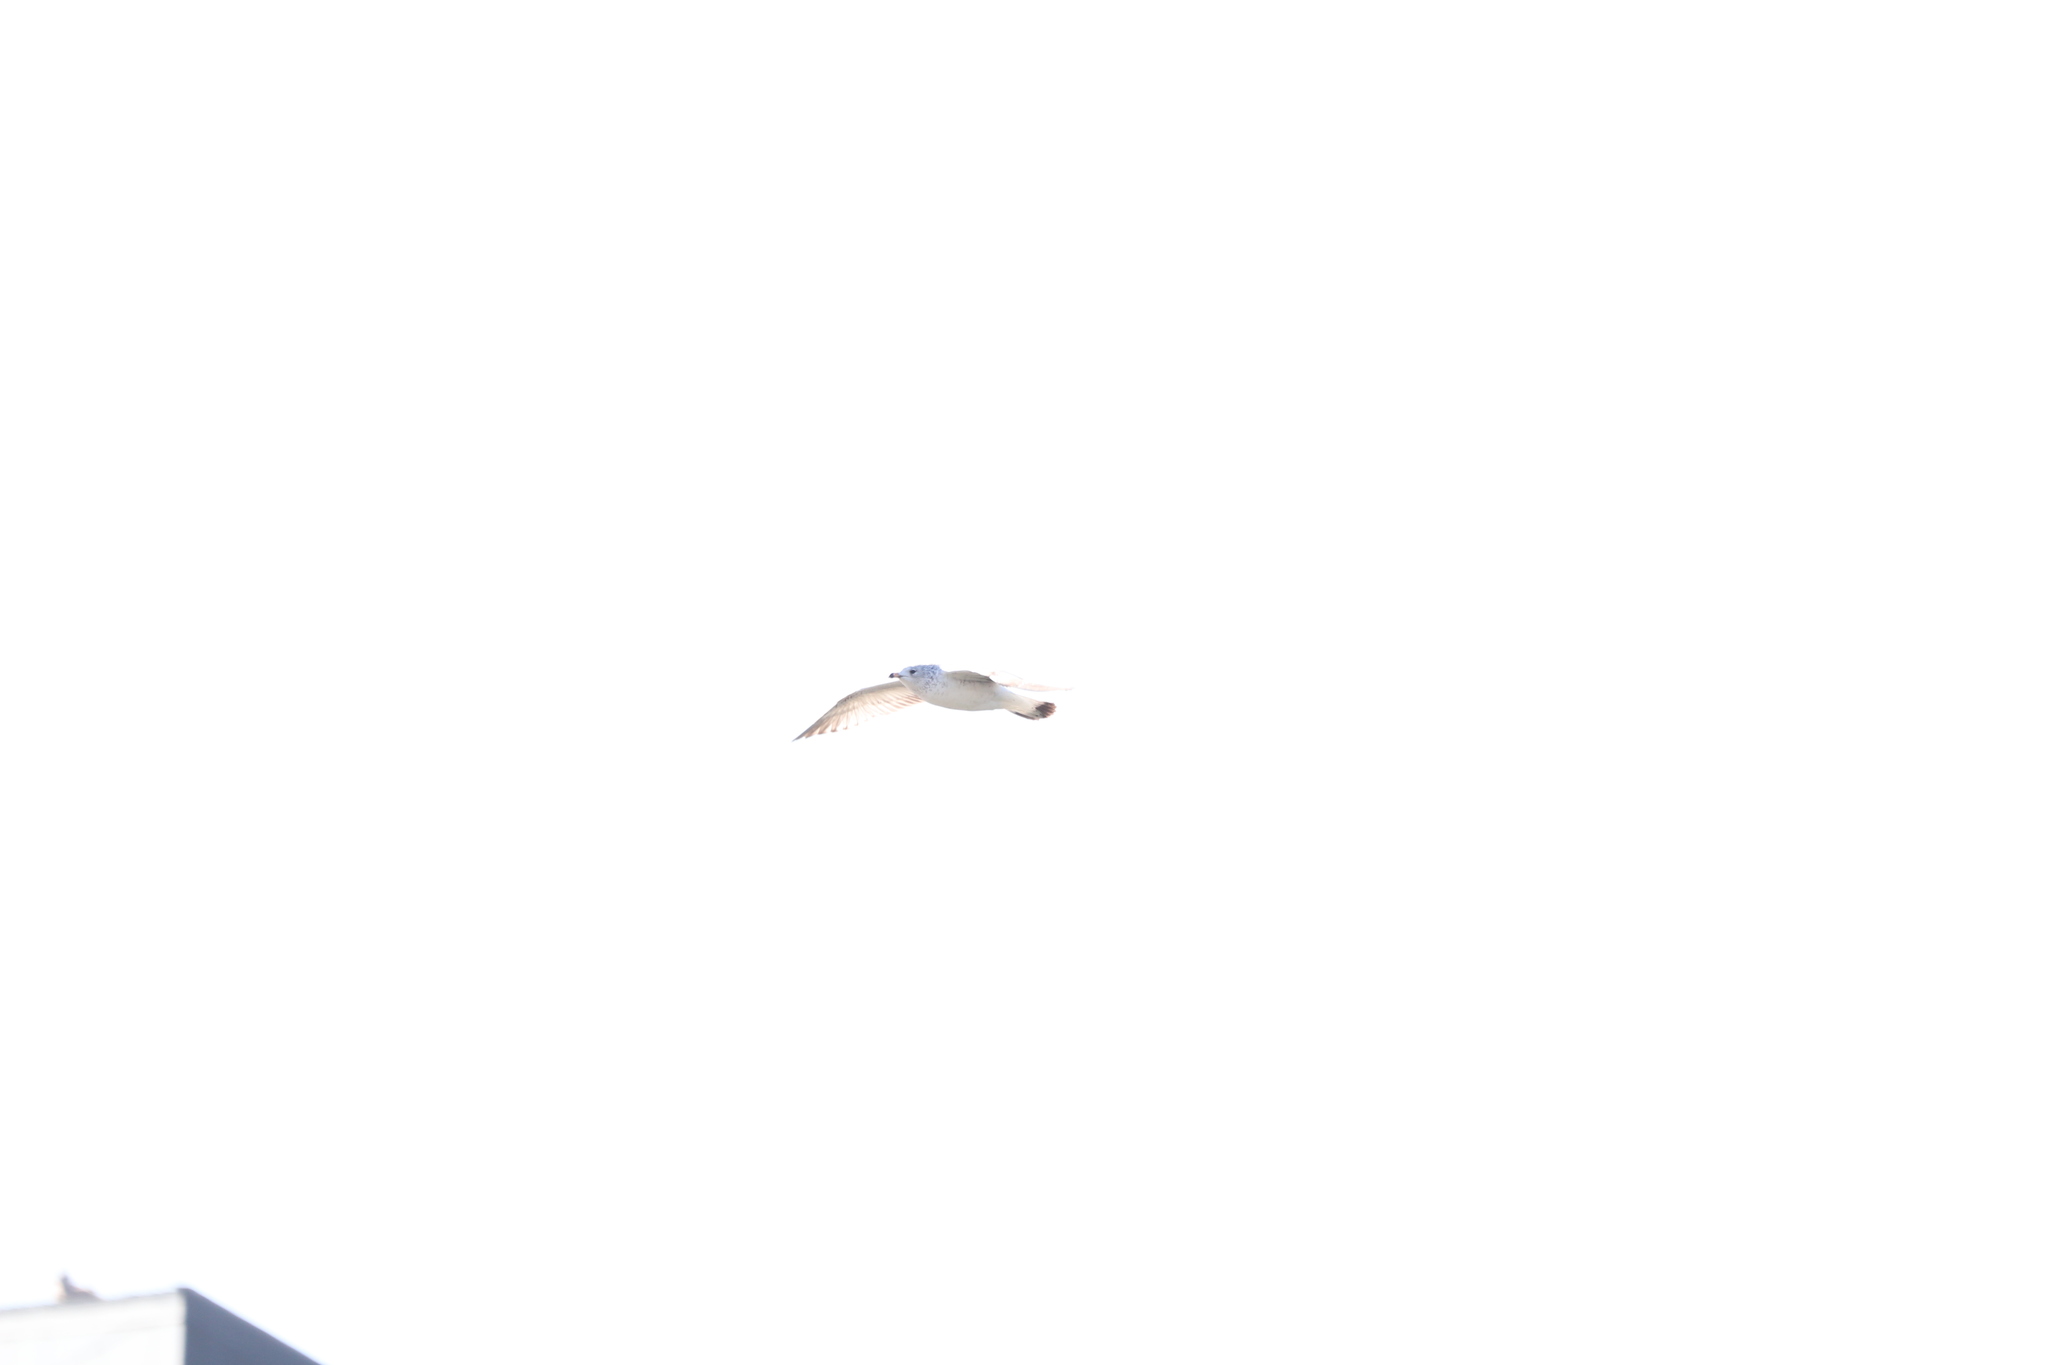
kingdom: Animalia
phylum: Chordata
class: Aves
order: Charadriiformes
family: Laridae
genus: Larus
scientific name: Larus delawarensis
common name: Ring-billed gull
